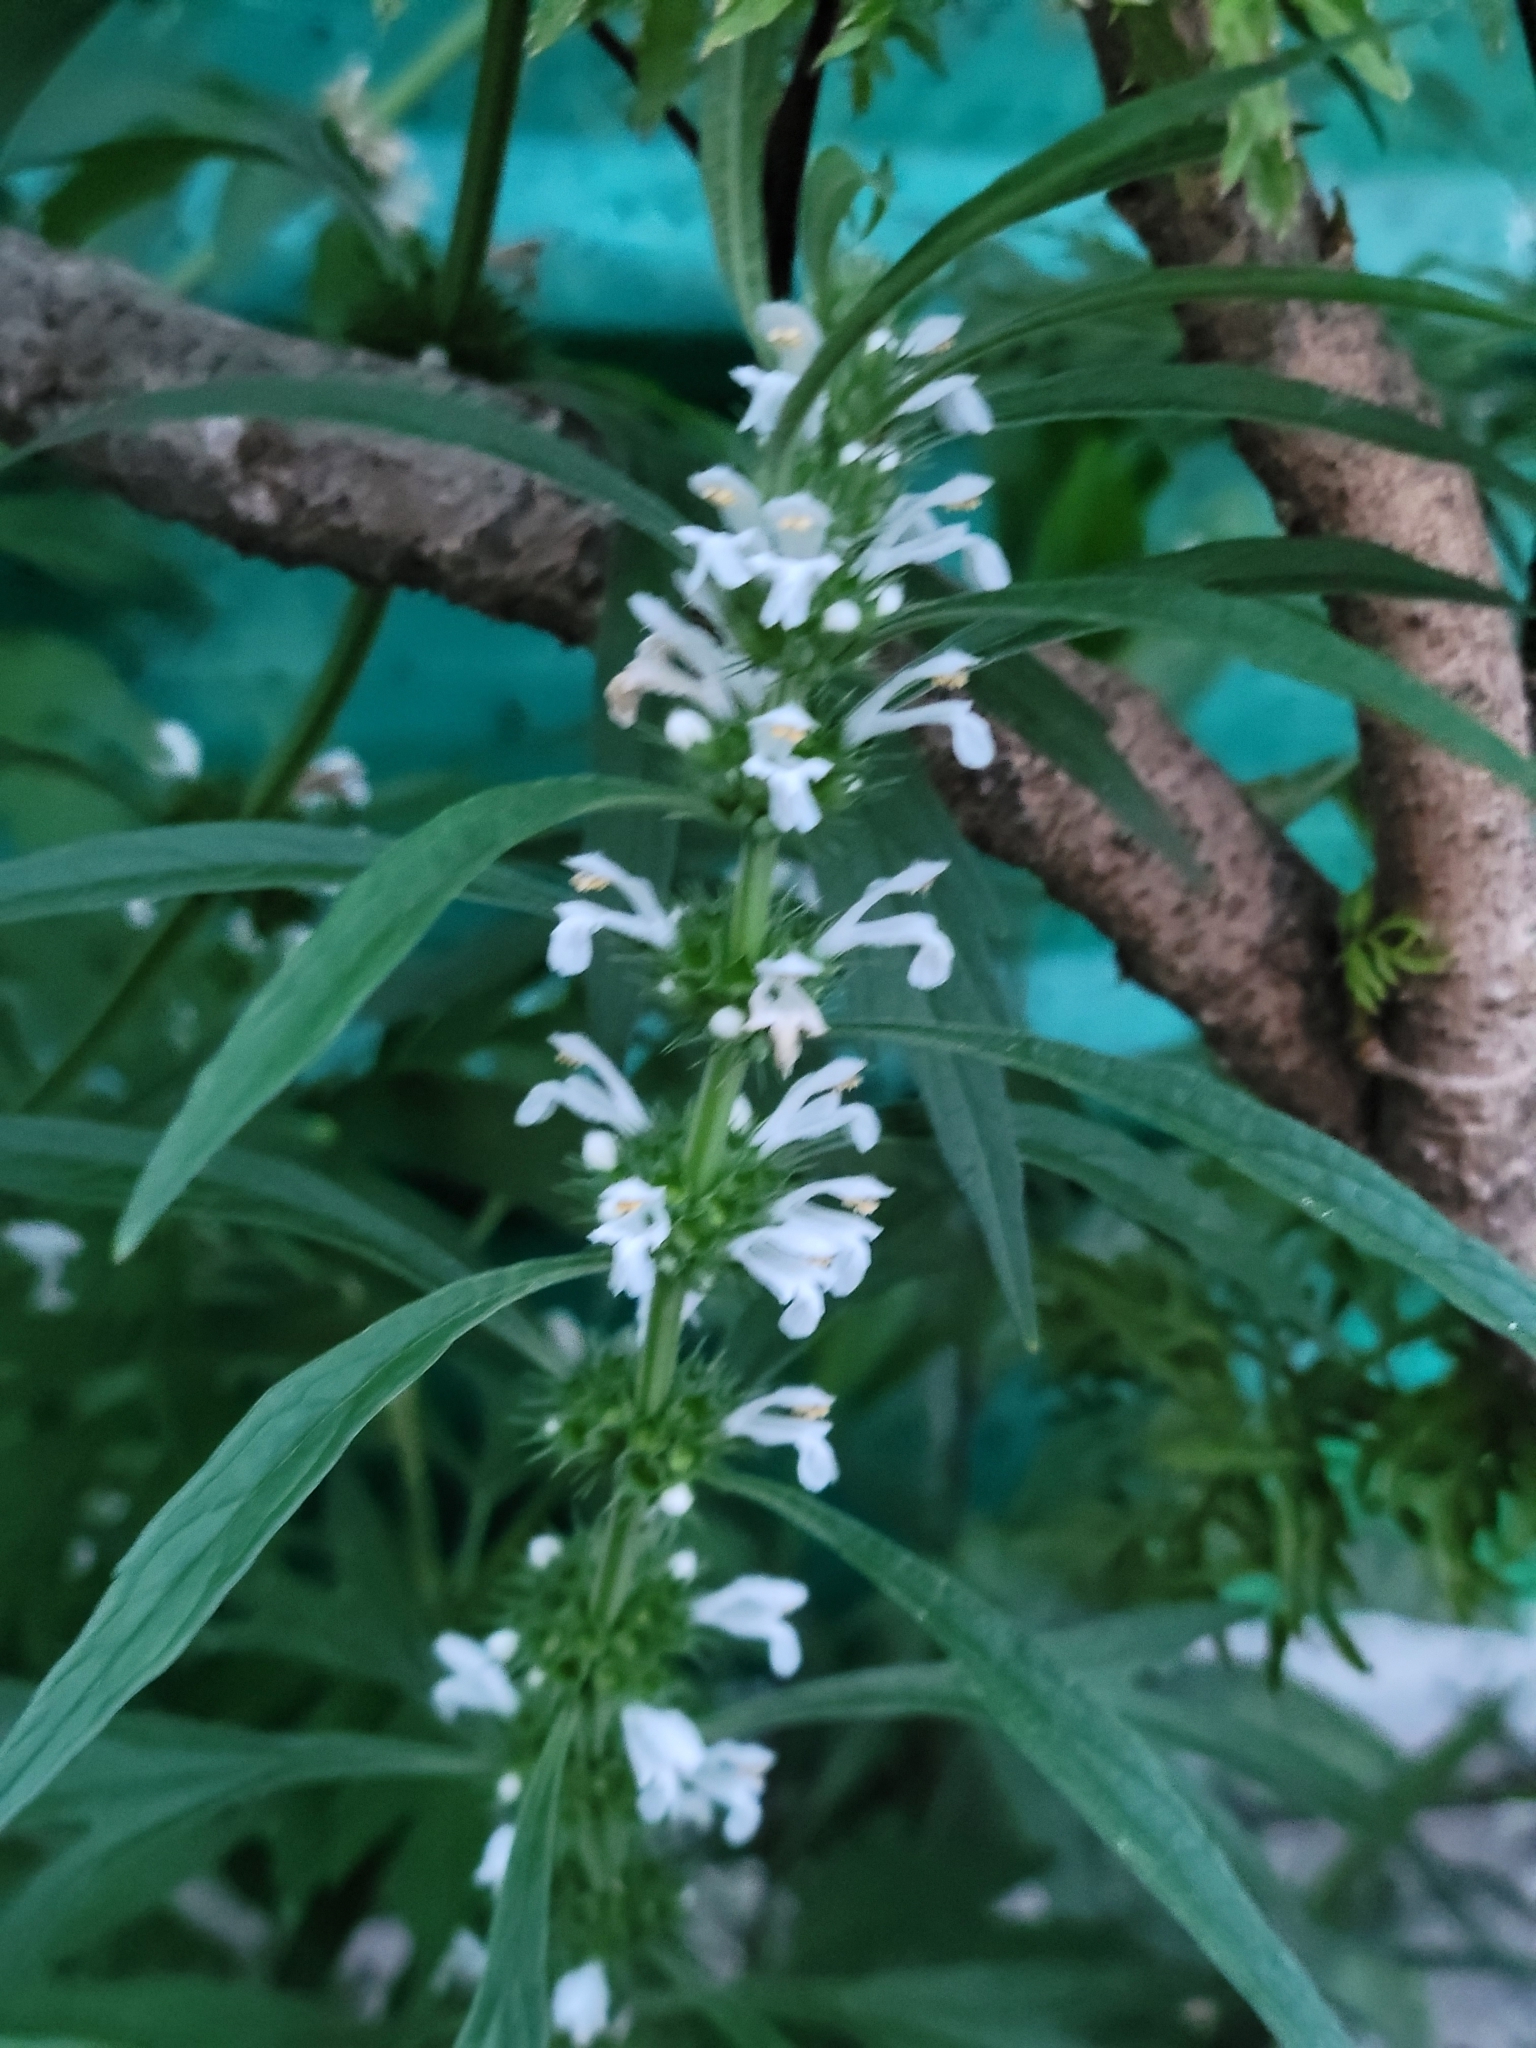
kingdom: Plantae
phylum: Tracheophyta
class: Magnoliopsida
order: Lamiales
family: Lamiaceae
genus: Leonurus
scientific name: Leonurus japonicus
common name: Honeyweed
